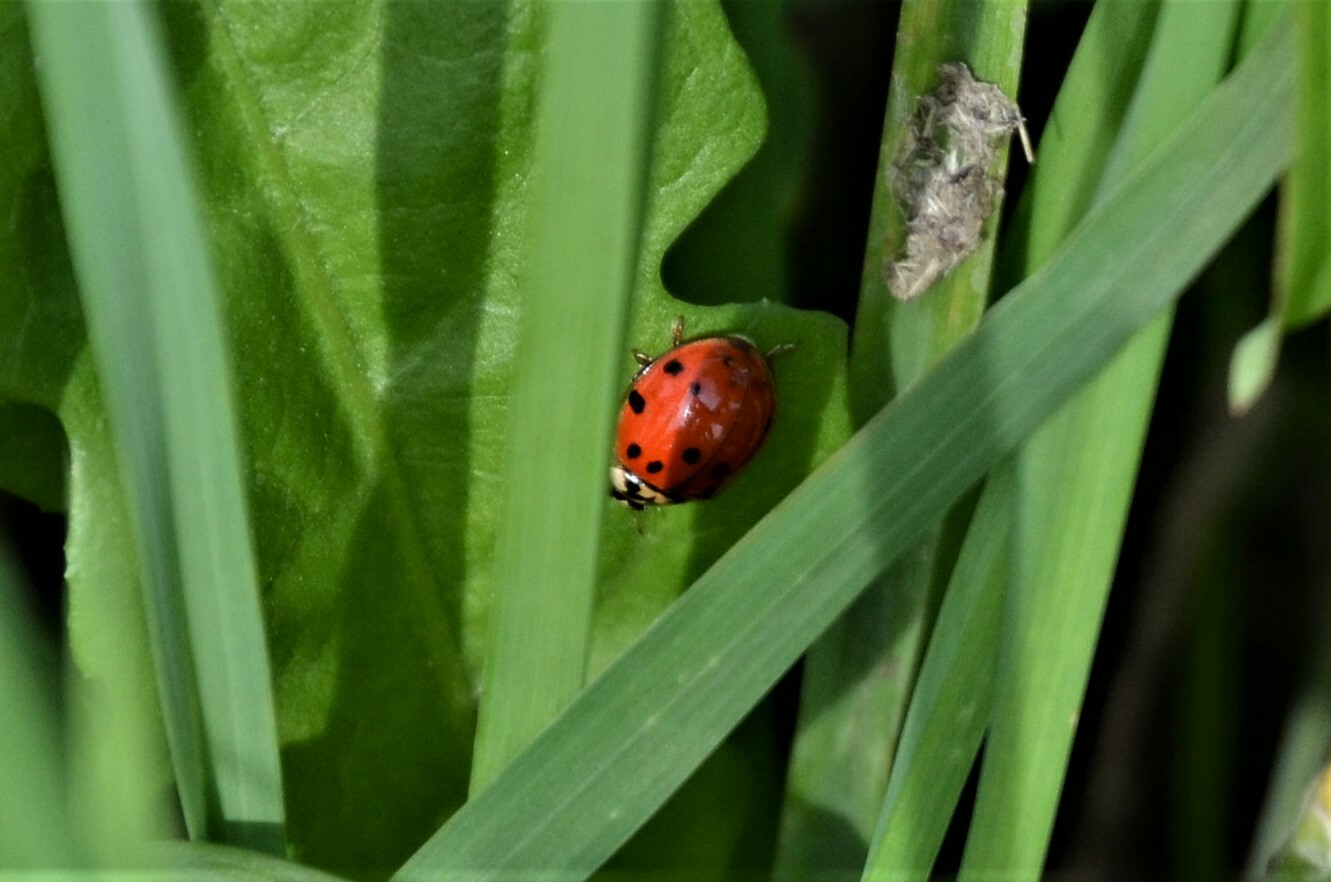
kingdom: Animalia
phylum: Arthropoda
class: Insecta
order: Coleoptera
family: Coccinellidae
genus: Harmonia
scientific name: Harmonia axyridis
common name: Harlequin ladybird
